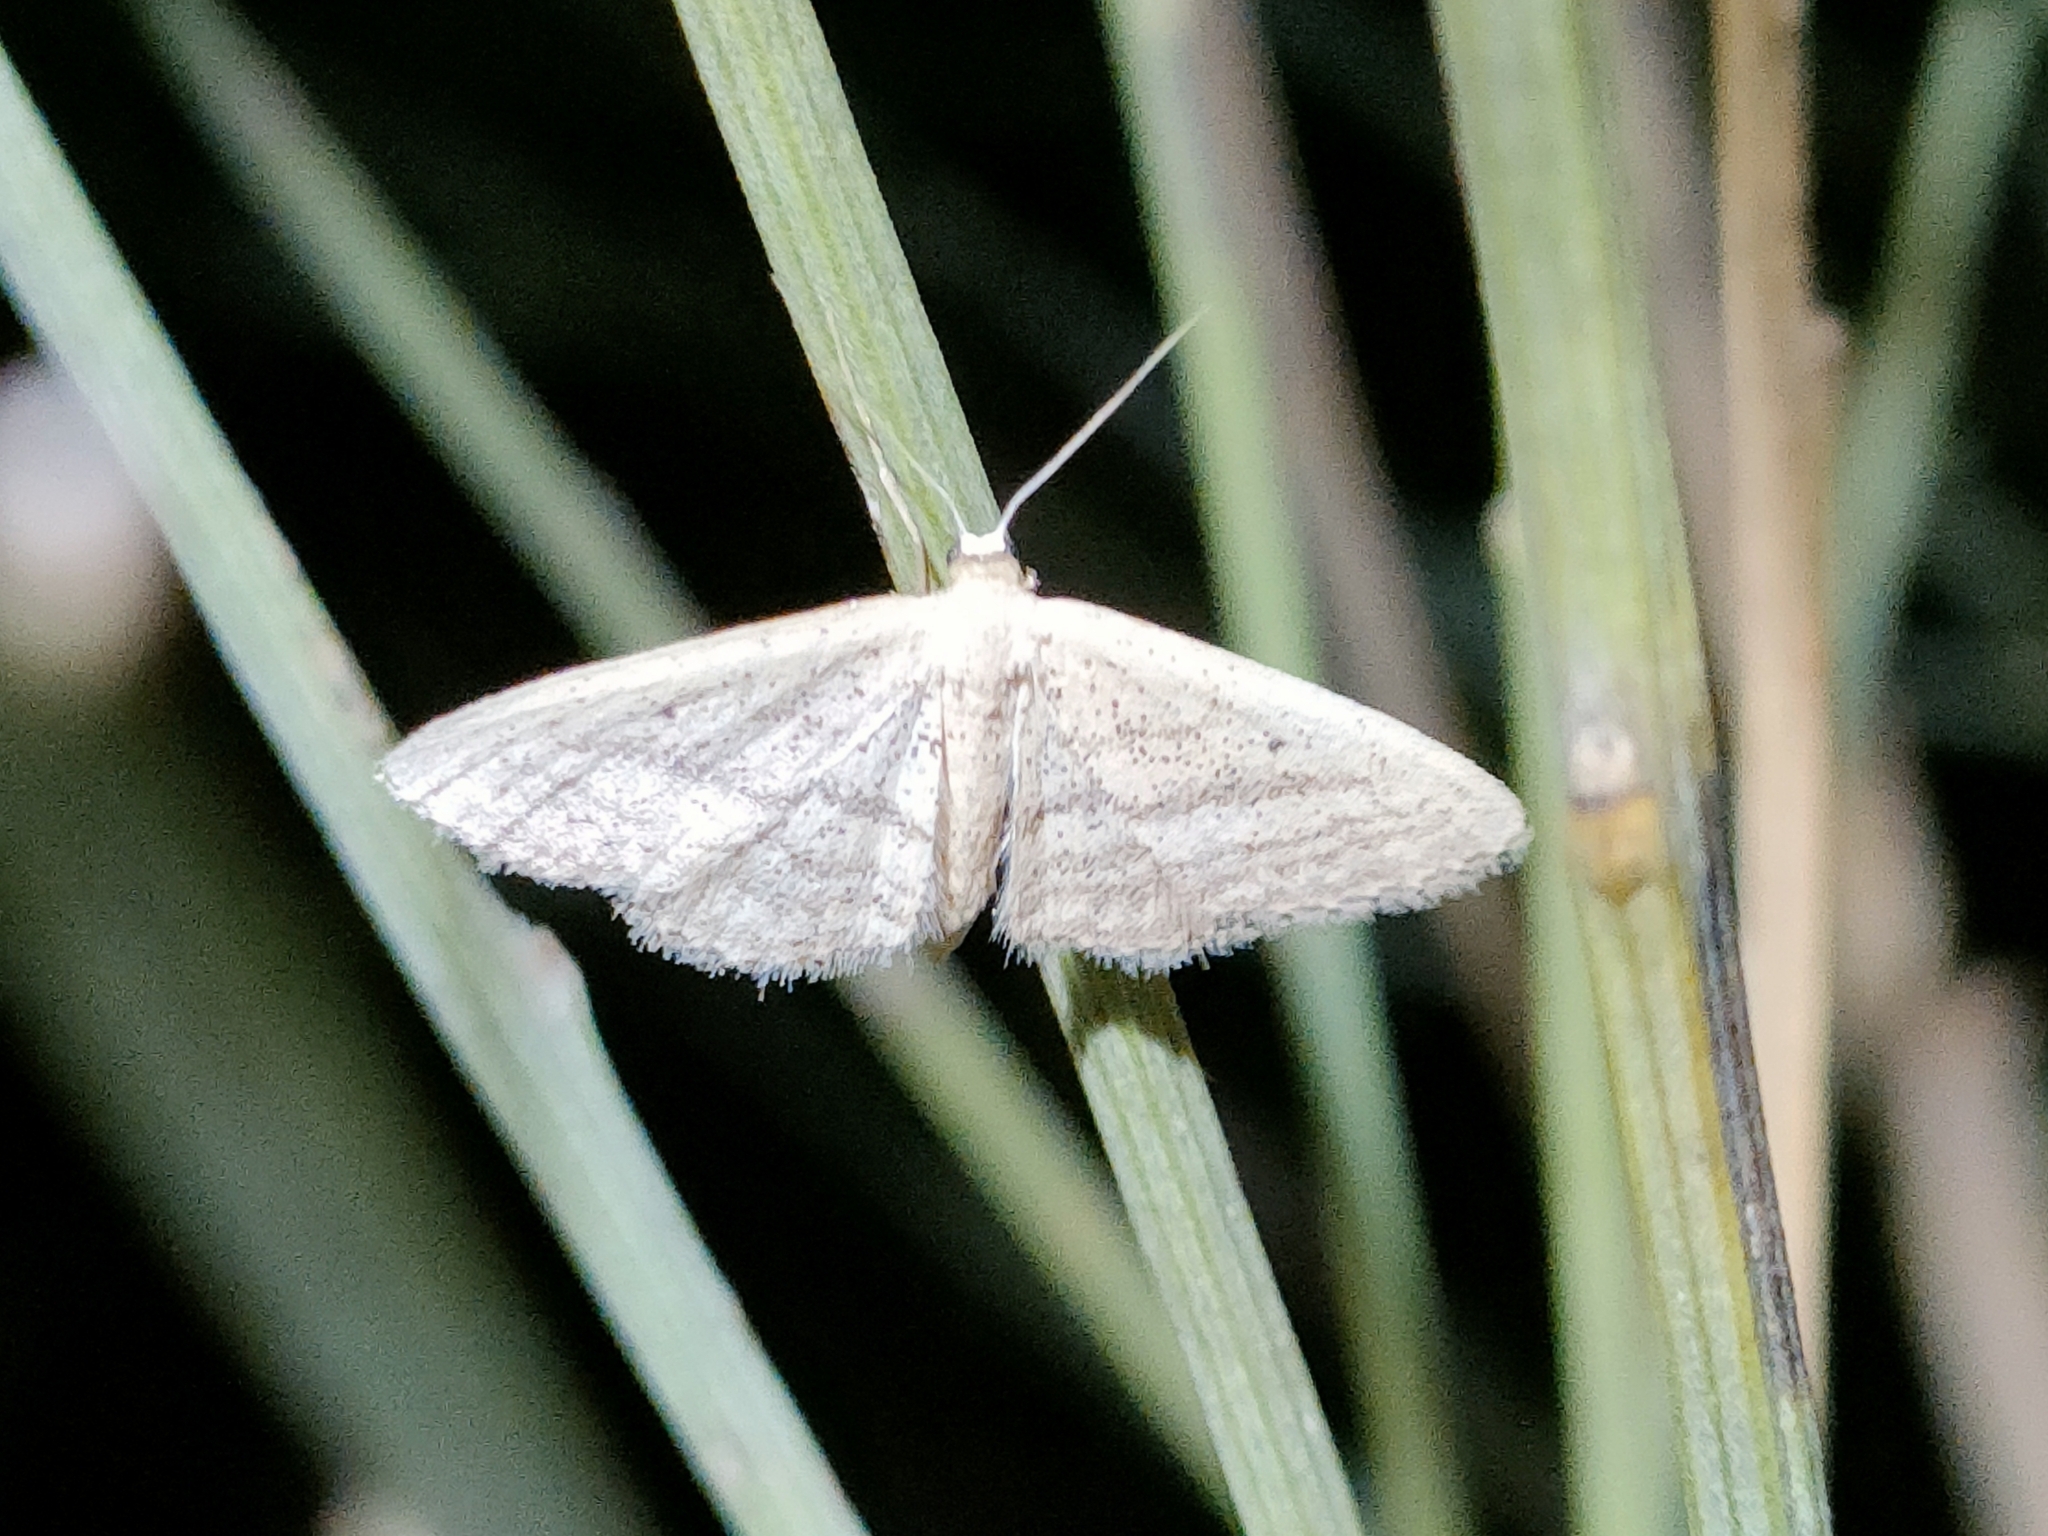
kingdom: Animalia
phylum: Arthropoda
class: Insecta
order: Lepidoptera
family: Geometridae
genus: Idaea
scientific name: Idaea mediaria
